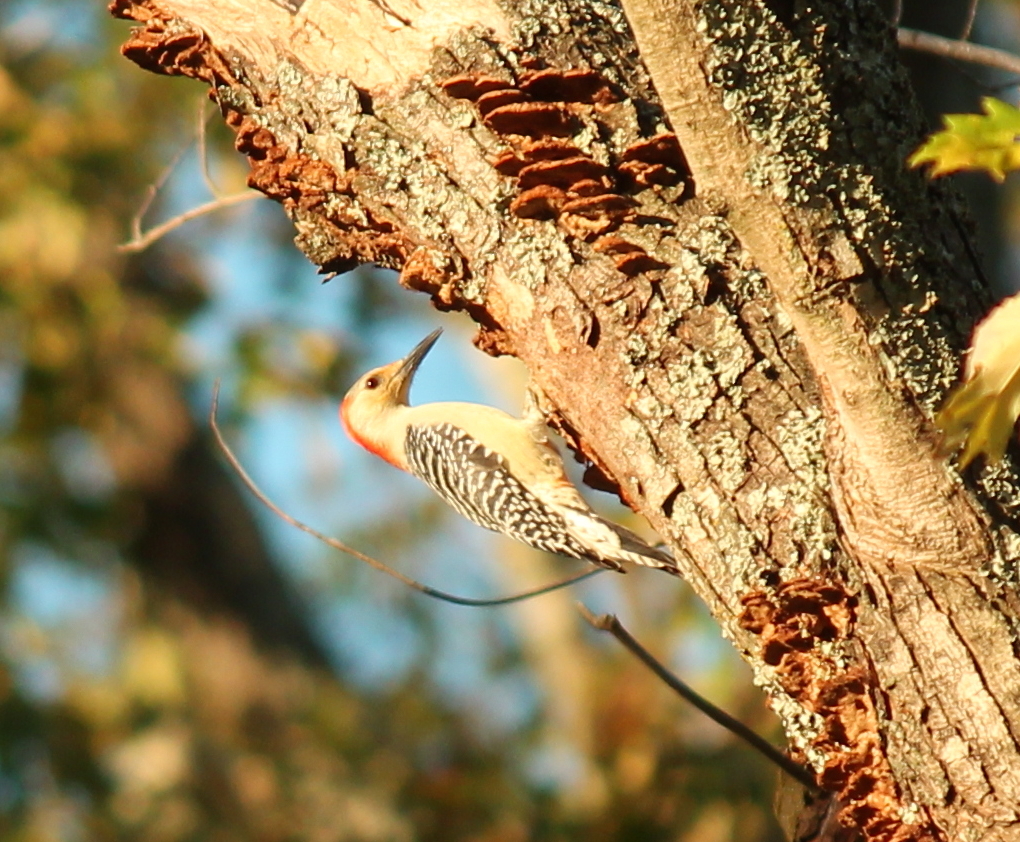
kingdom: Animalia
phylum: Chordata
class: Aves
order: Piciformes
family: Picidae
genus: Melanerpes
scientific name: Melanerpes carolinus
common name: Red-bellied woodpecker
